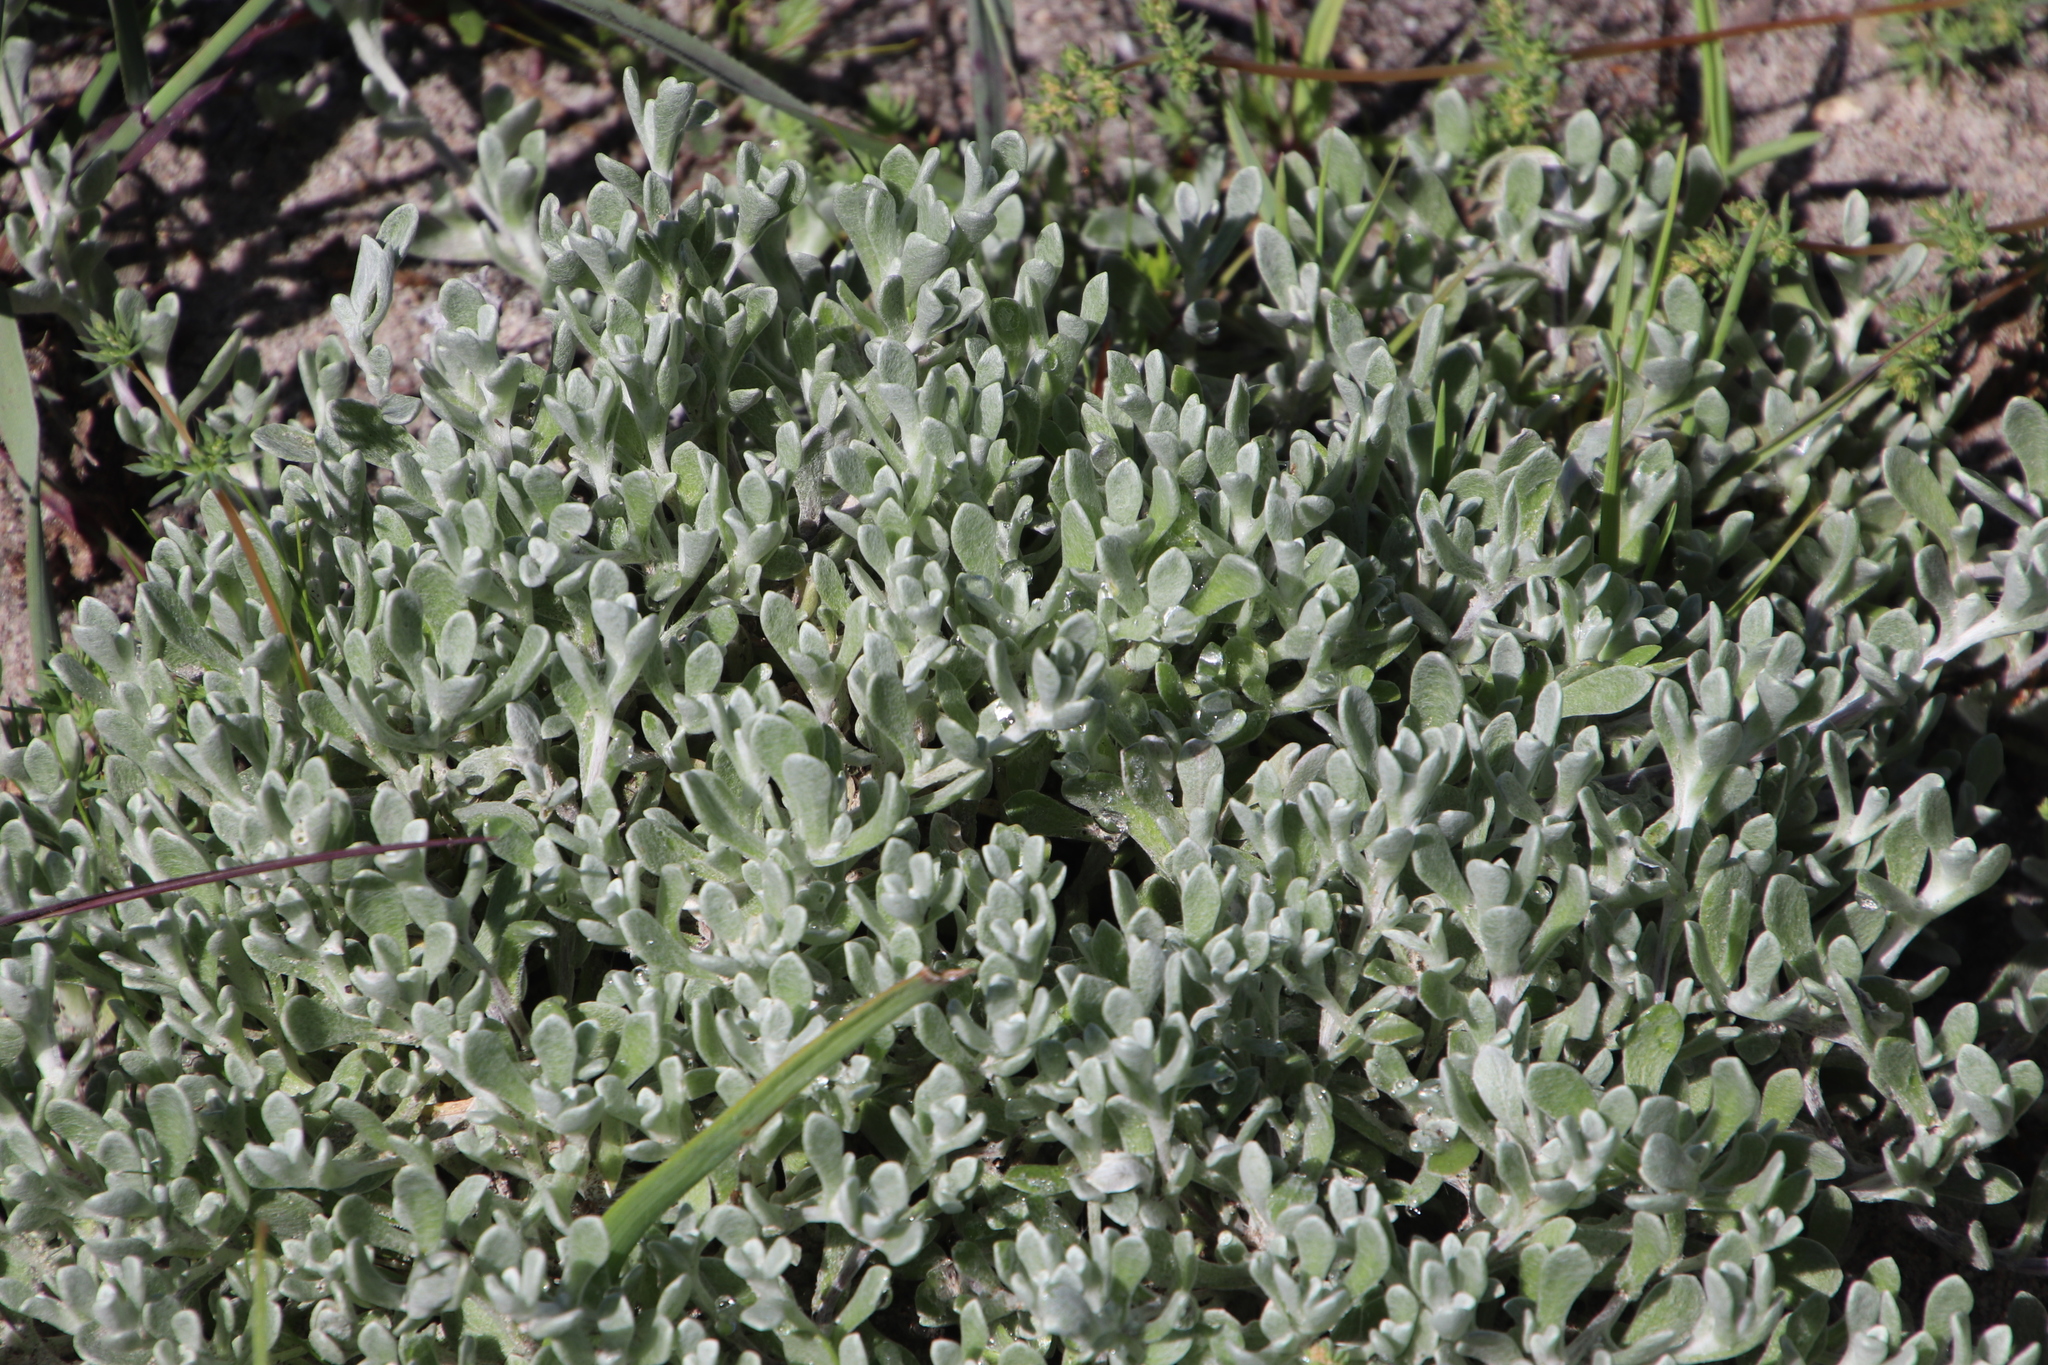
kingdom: Plantae
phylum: Tracheophyta
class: Magnoliopsida
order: Asterales
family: Asteraceae
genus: Helichrysum
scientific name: Helichrysum patulum
